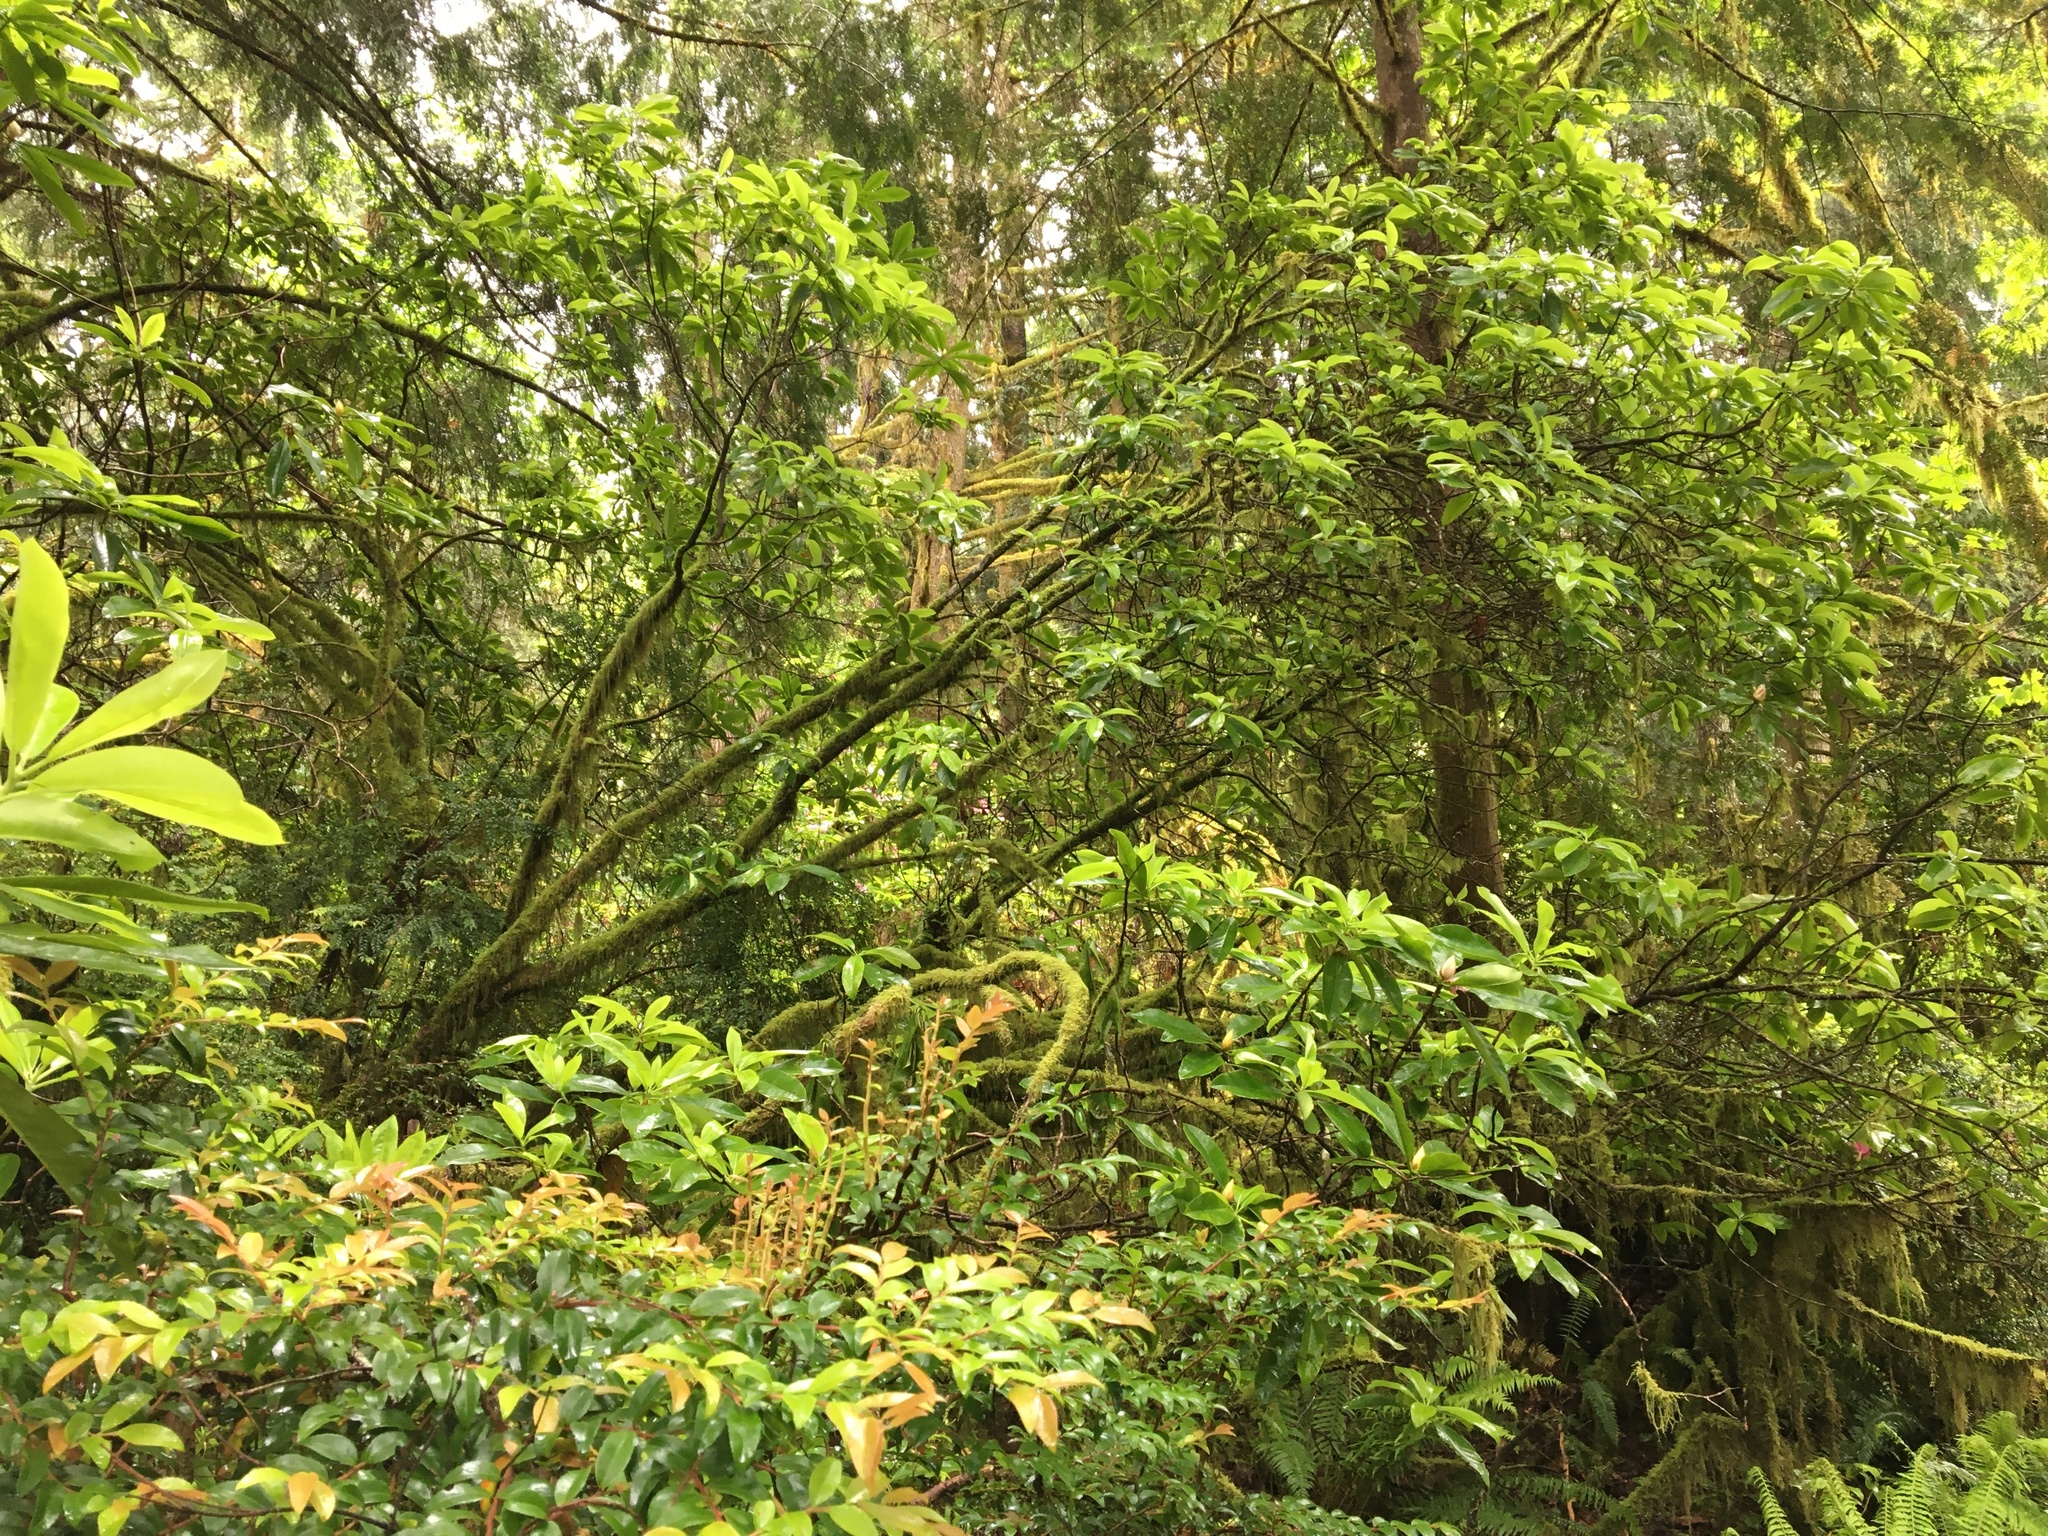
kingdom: Plantae
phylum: Tracheophyta
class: Magnoliopsida
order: Ericales
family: Ericaceae
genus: Rhododendron
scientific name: Rhododendron macrophyllum
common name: California rose bay
